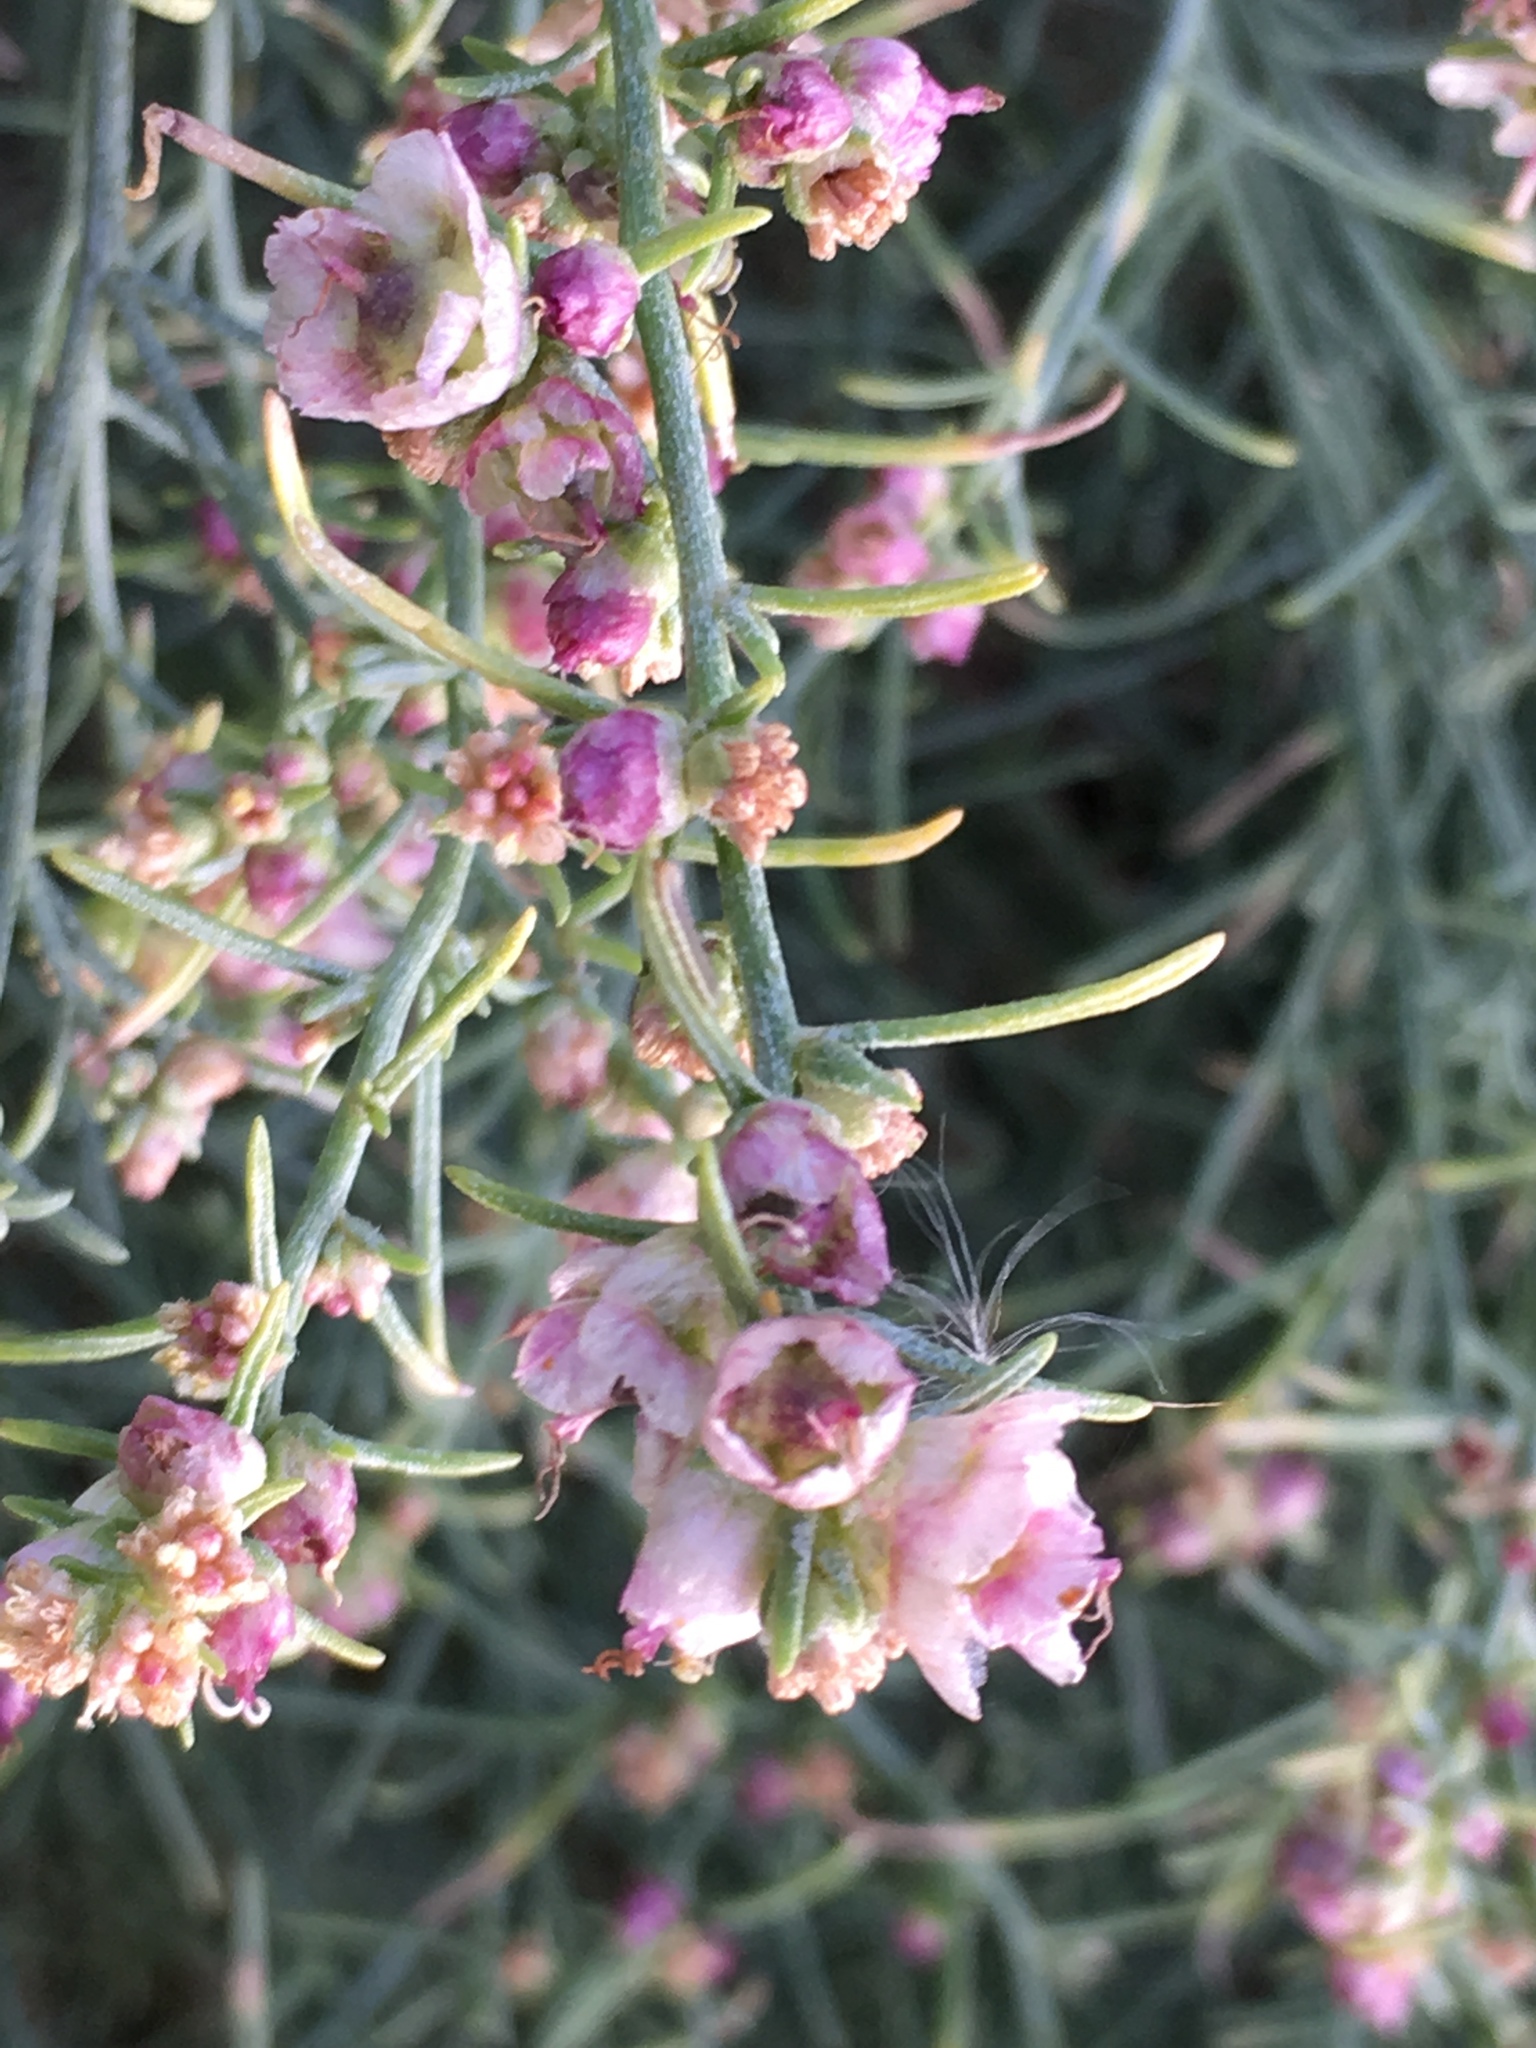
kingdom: Plantae
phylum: Tracheophyta
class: Magnoliopsida
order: Asterales
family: Asteraceae
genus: Ambrosia
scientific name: Ambrosia salsola
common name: Burrobrush
